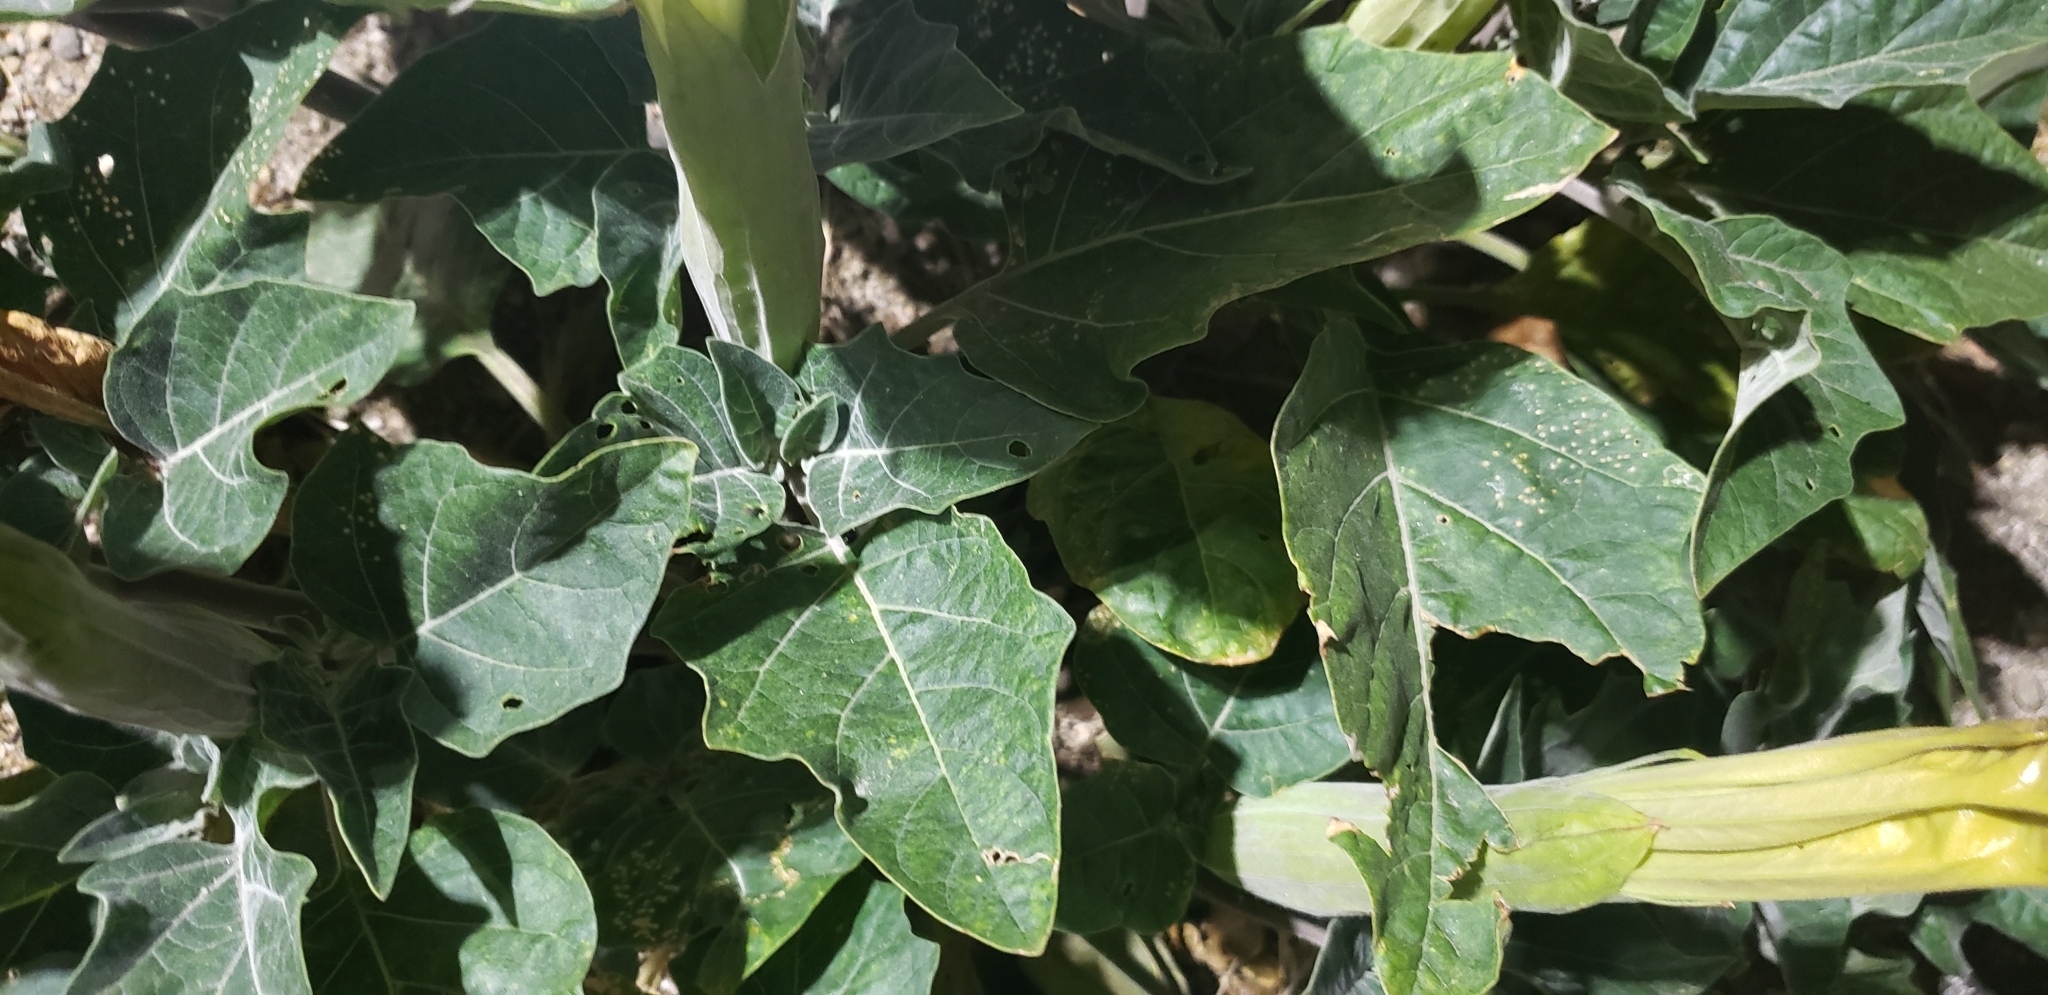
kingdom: Plantae
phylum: Tracheophyta
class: Magnoliopsida
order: Solanales
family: Solanaceae
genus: Datura
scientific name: Datura wrightii
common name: Sacred thorn-apple
